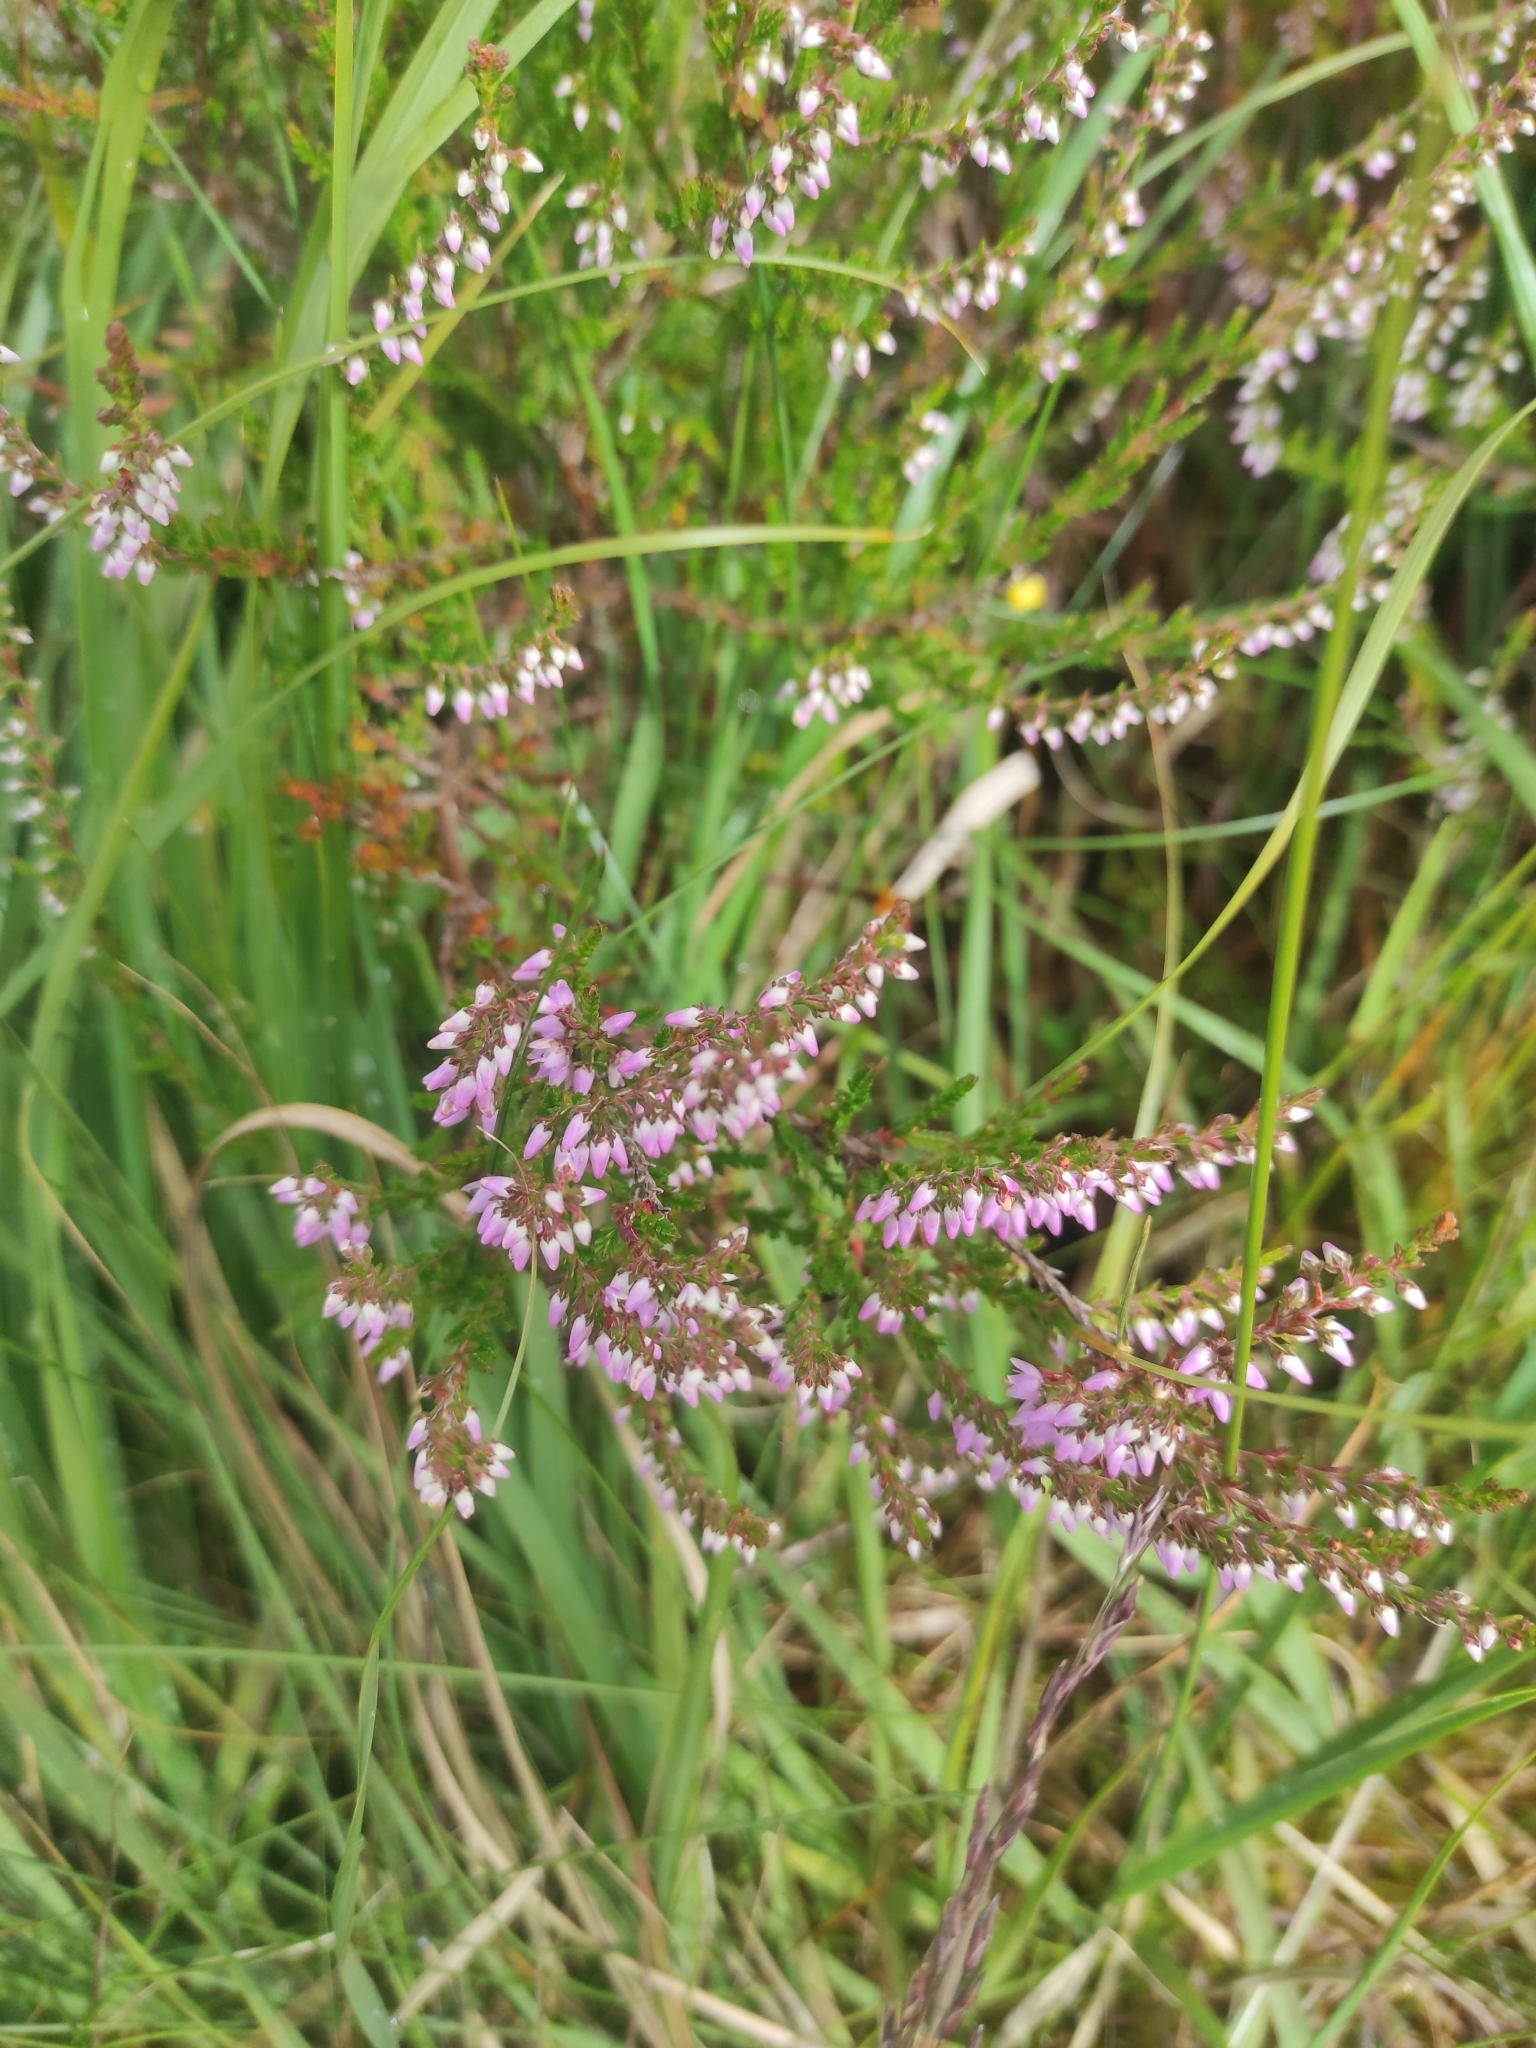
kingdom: Plantae
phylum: Tracheophyta
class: Magnoliopsida
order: Ericales
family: Ericaceae
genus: Calluna
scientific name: Calluna vulgaris
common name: Heather
